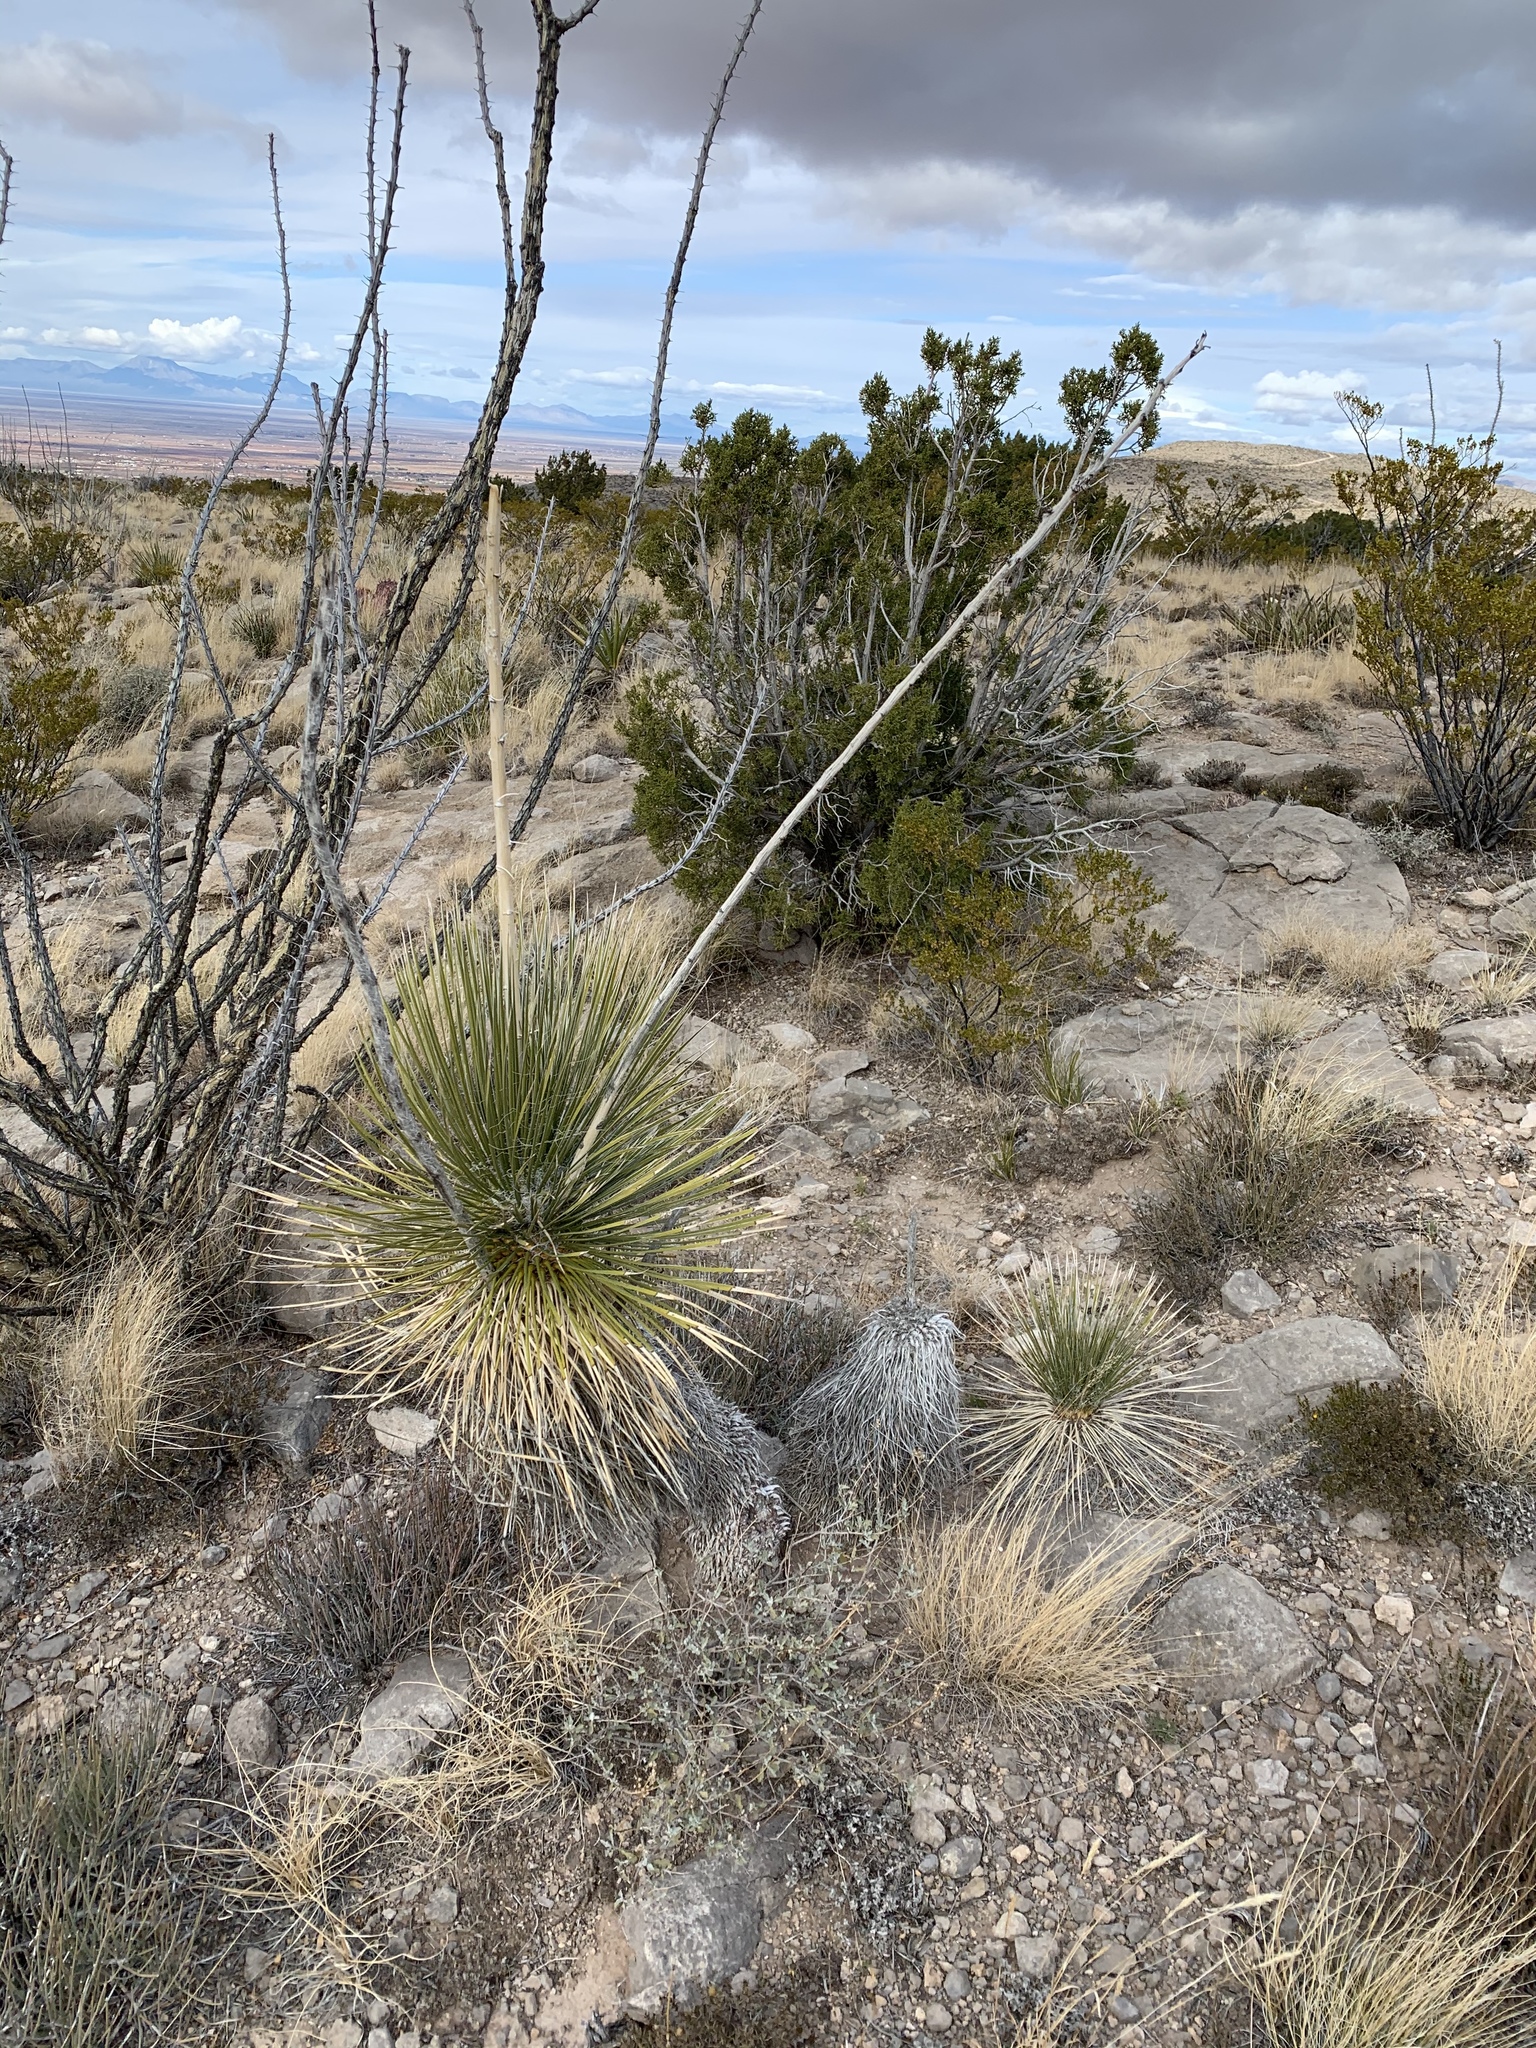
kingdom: Plantae
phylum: Tracheophyta
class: Liliopsida
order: Asparagales
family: Asparagaceae
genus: Yucca
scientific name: Yucca elata
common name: Palmella
